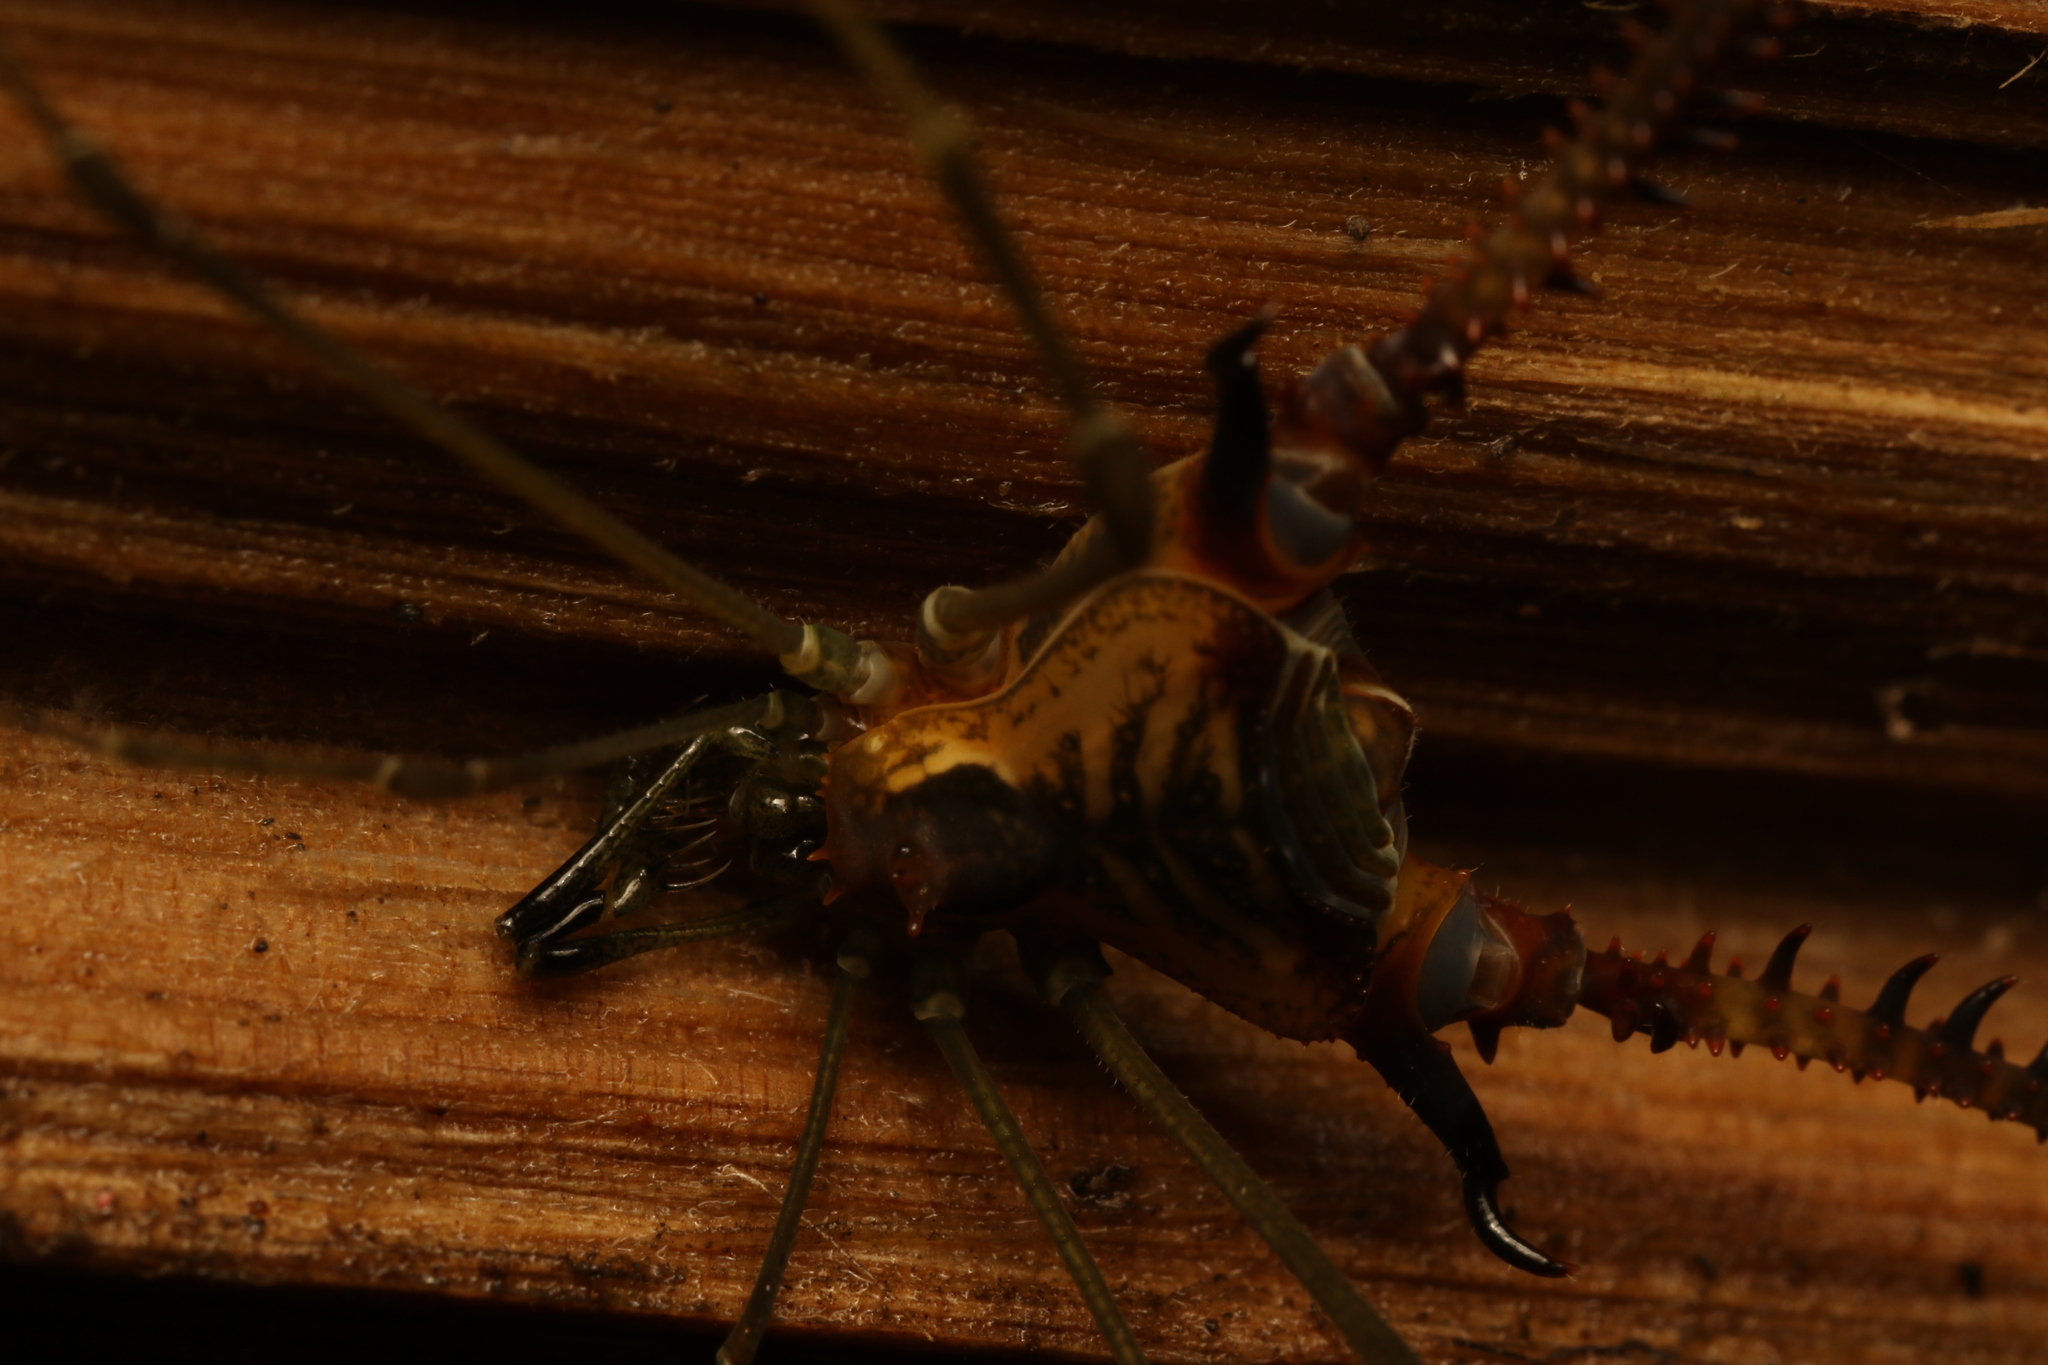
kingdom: Animalia
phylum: Arthropoda
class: Arachnida
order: Opiliones
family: Gonyleptidae
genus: Progonyleptoidellus
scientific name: Progonyleptoidellus striatus
